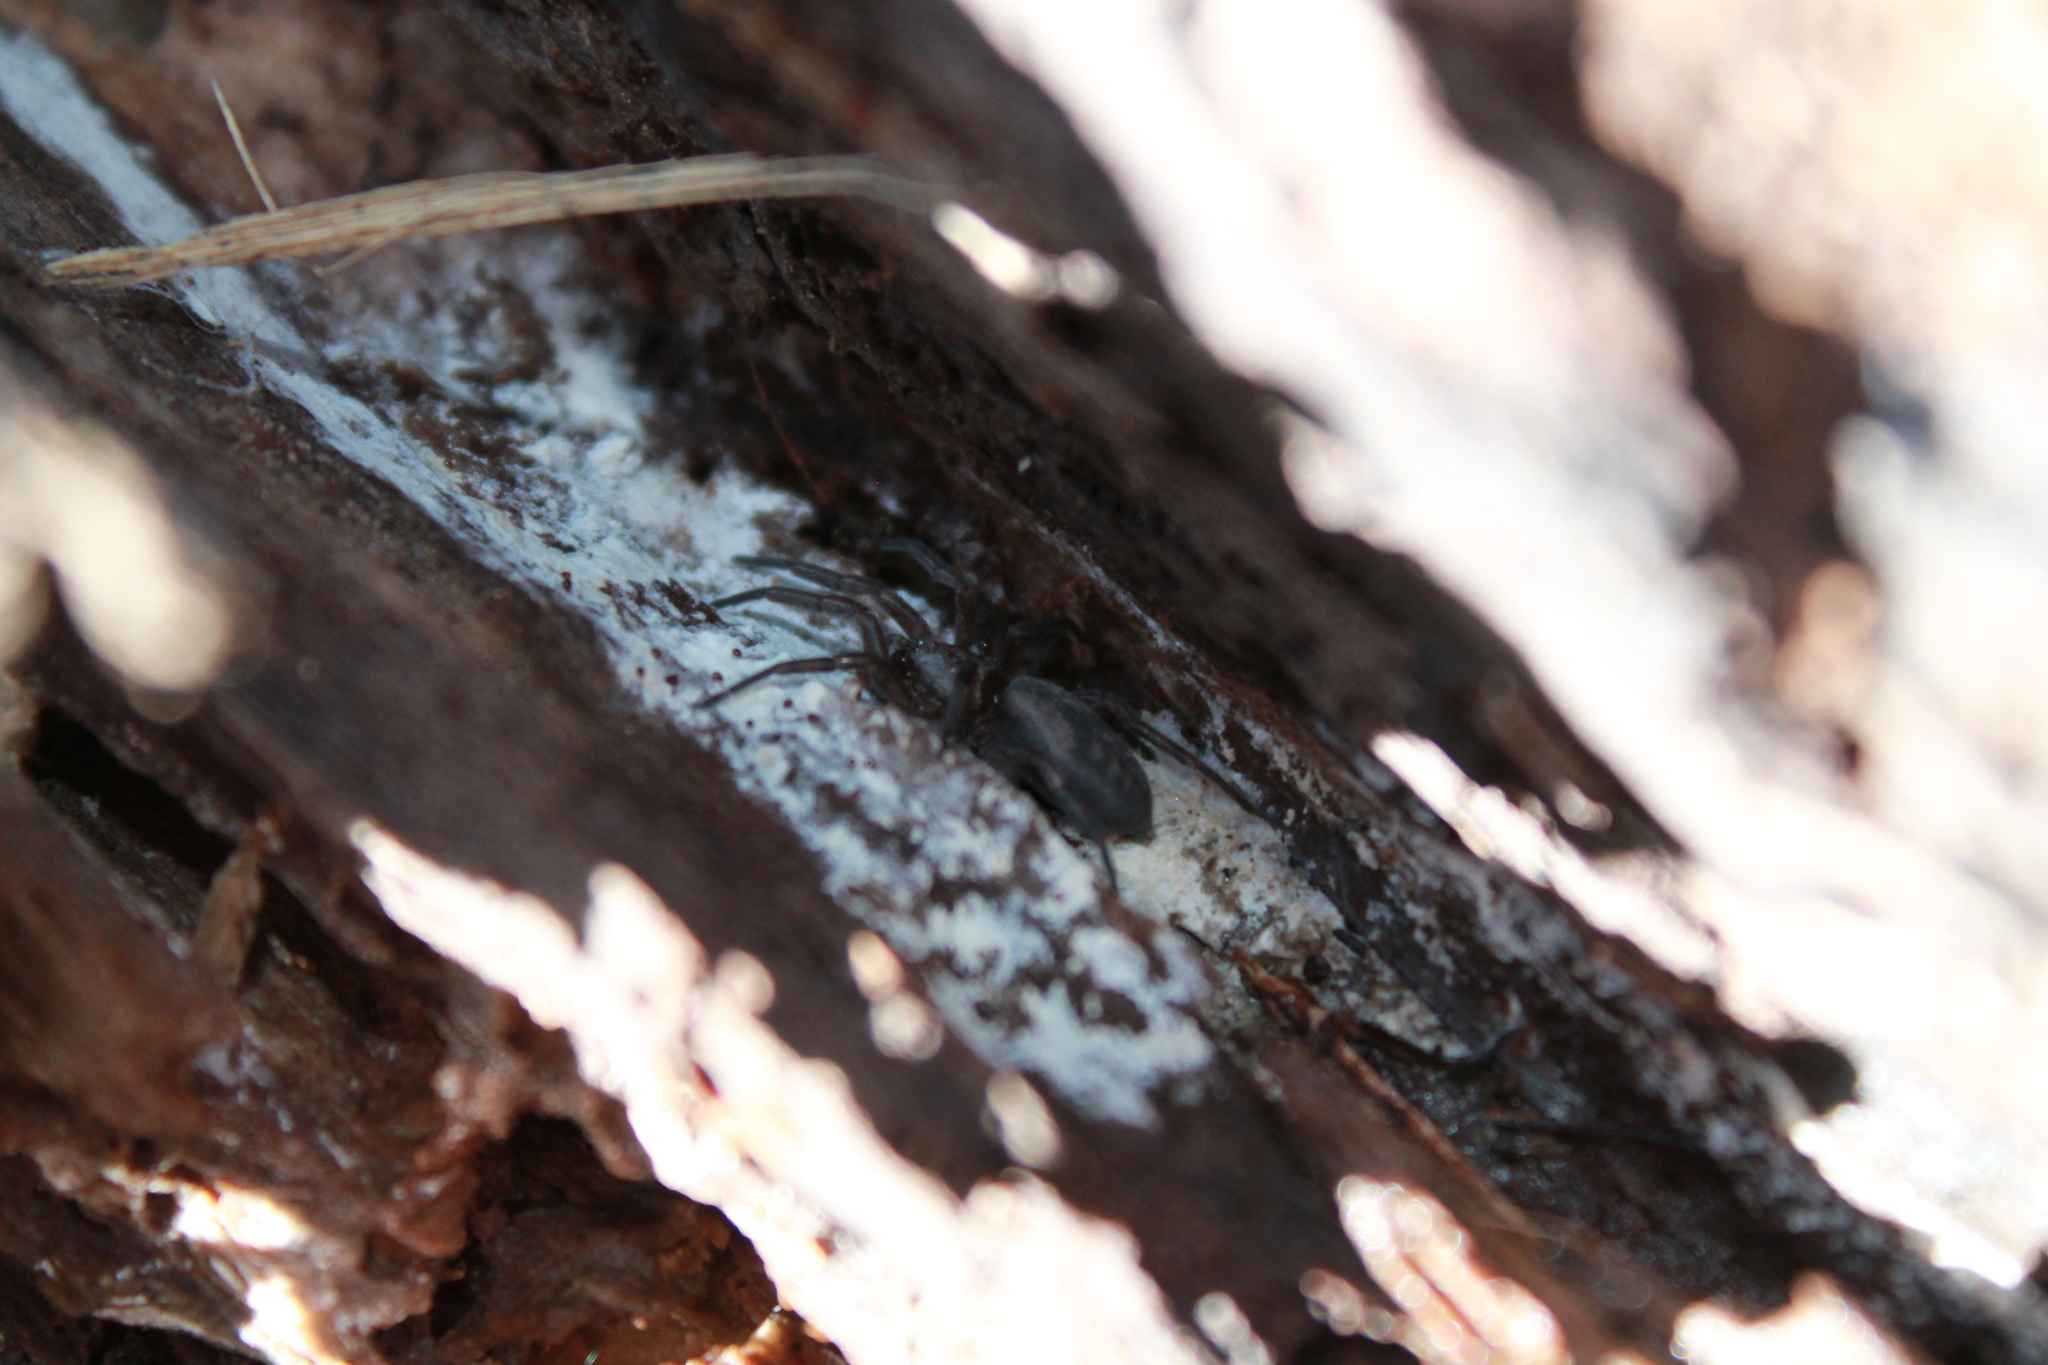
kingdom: Animalia
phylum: Arthropoda
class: Arachnida
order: Araneae
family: Gnaphosidae
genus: Intruda
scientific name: Intruda signata
